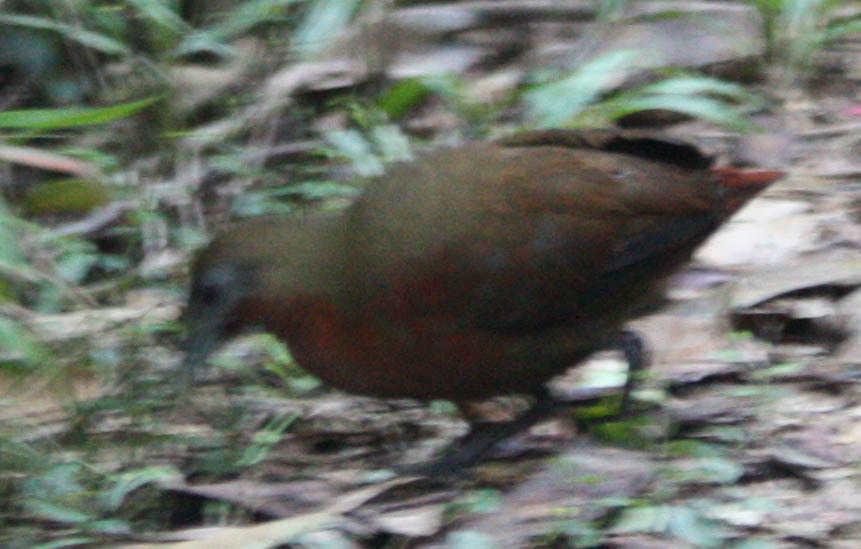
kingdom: Animalia
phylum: Chordata
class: Aves
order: Gruiformes
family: Sarothruridae
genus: Mentocrex
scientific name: Mentocrex kioloides
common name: Madagascar forest rail
